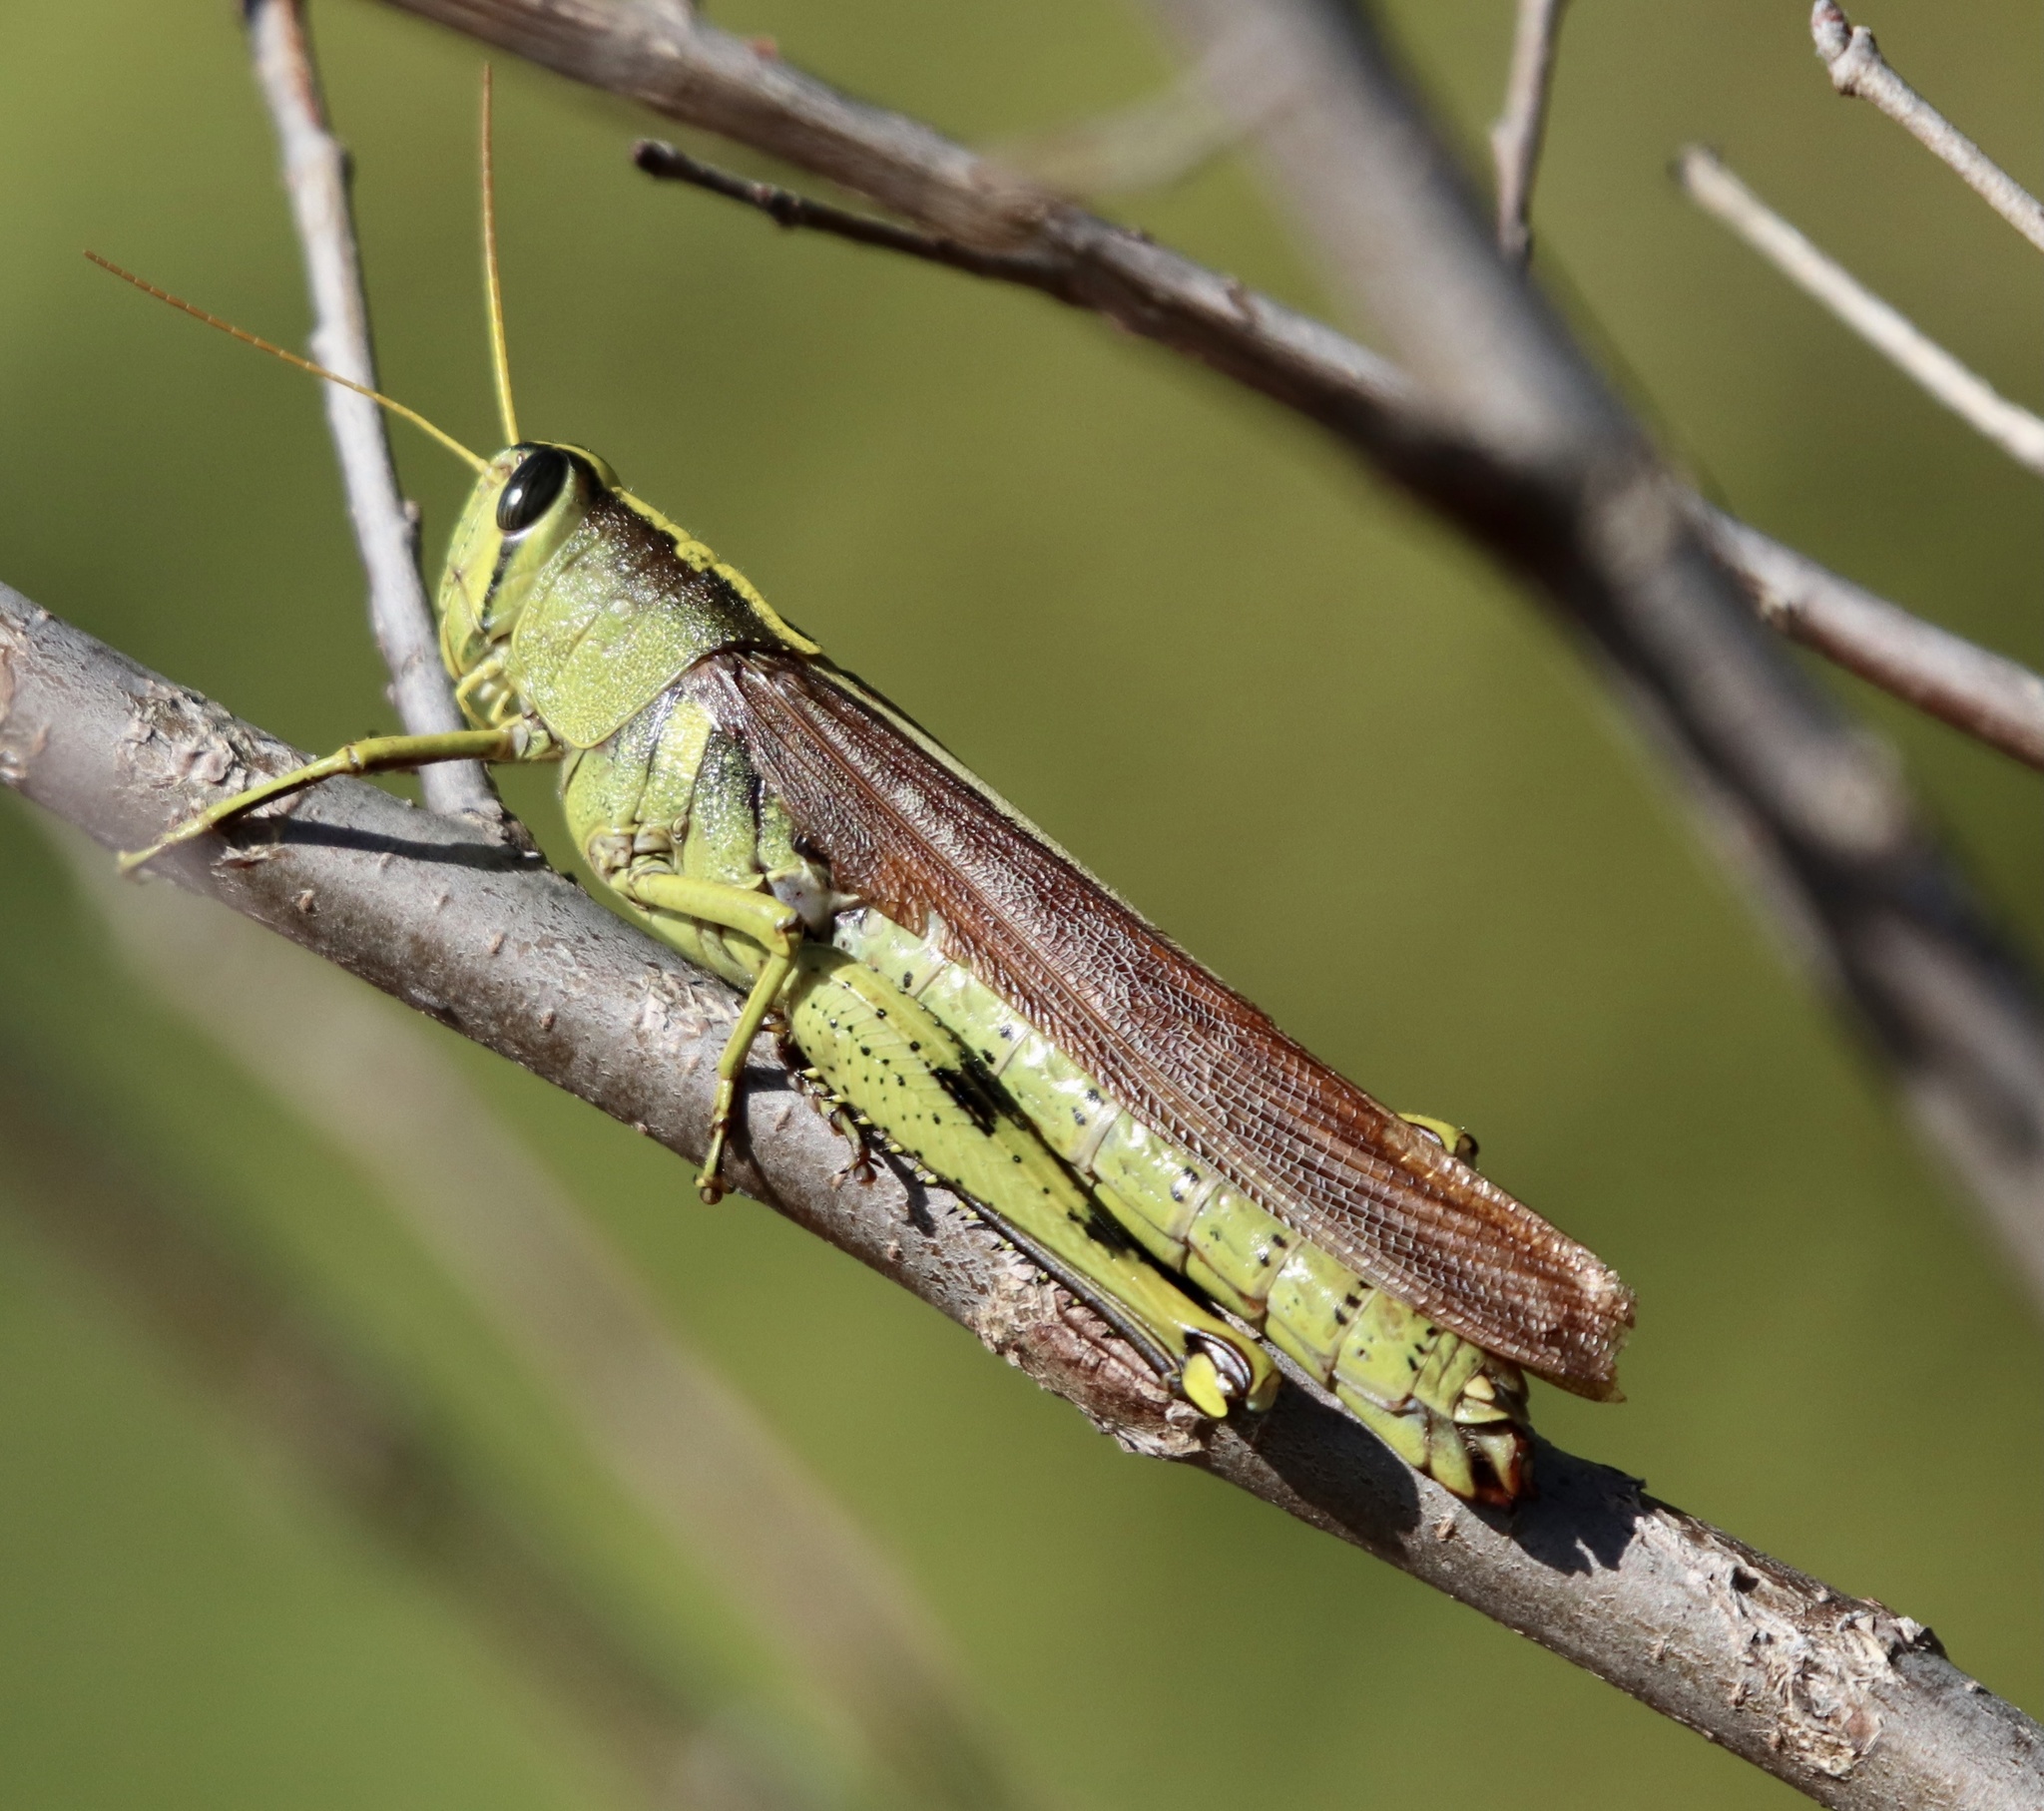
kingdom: Animalia
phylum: Arthropoda
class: Insecta
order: Orthoptera
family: Acrididae
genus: Schistocerca
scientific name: Schistocerca obscura
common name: Obscure bird grasshopper
